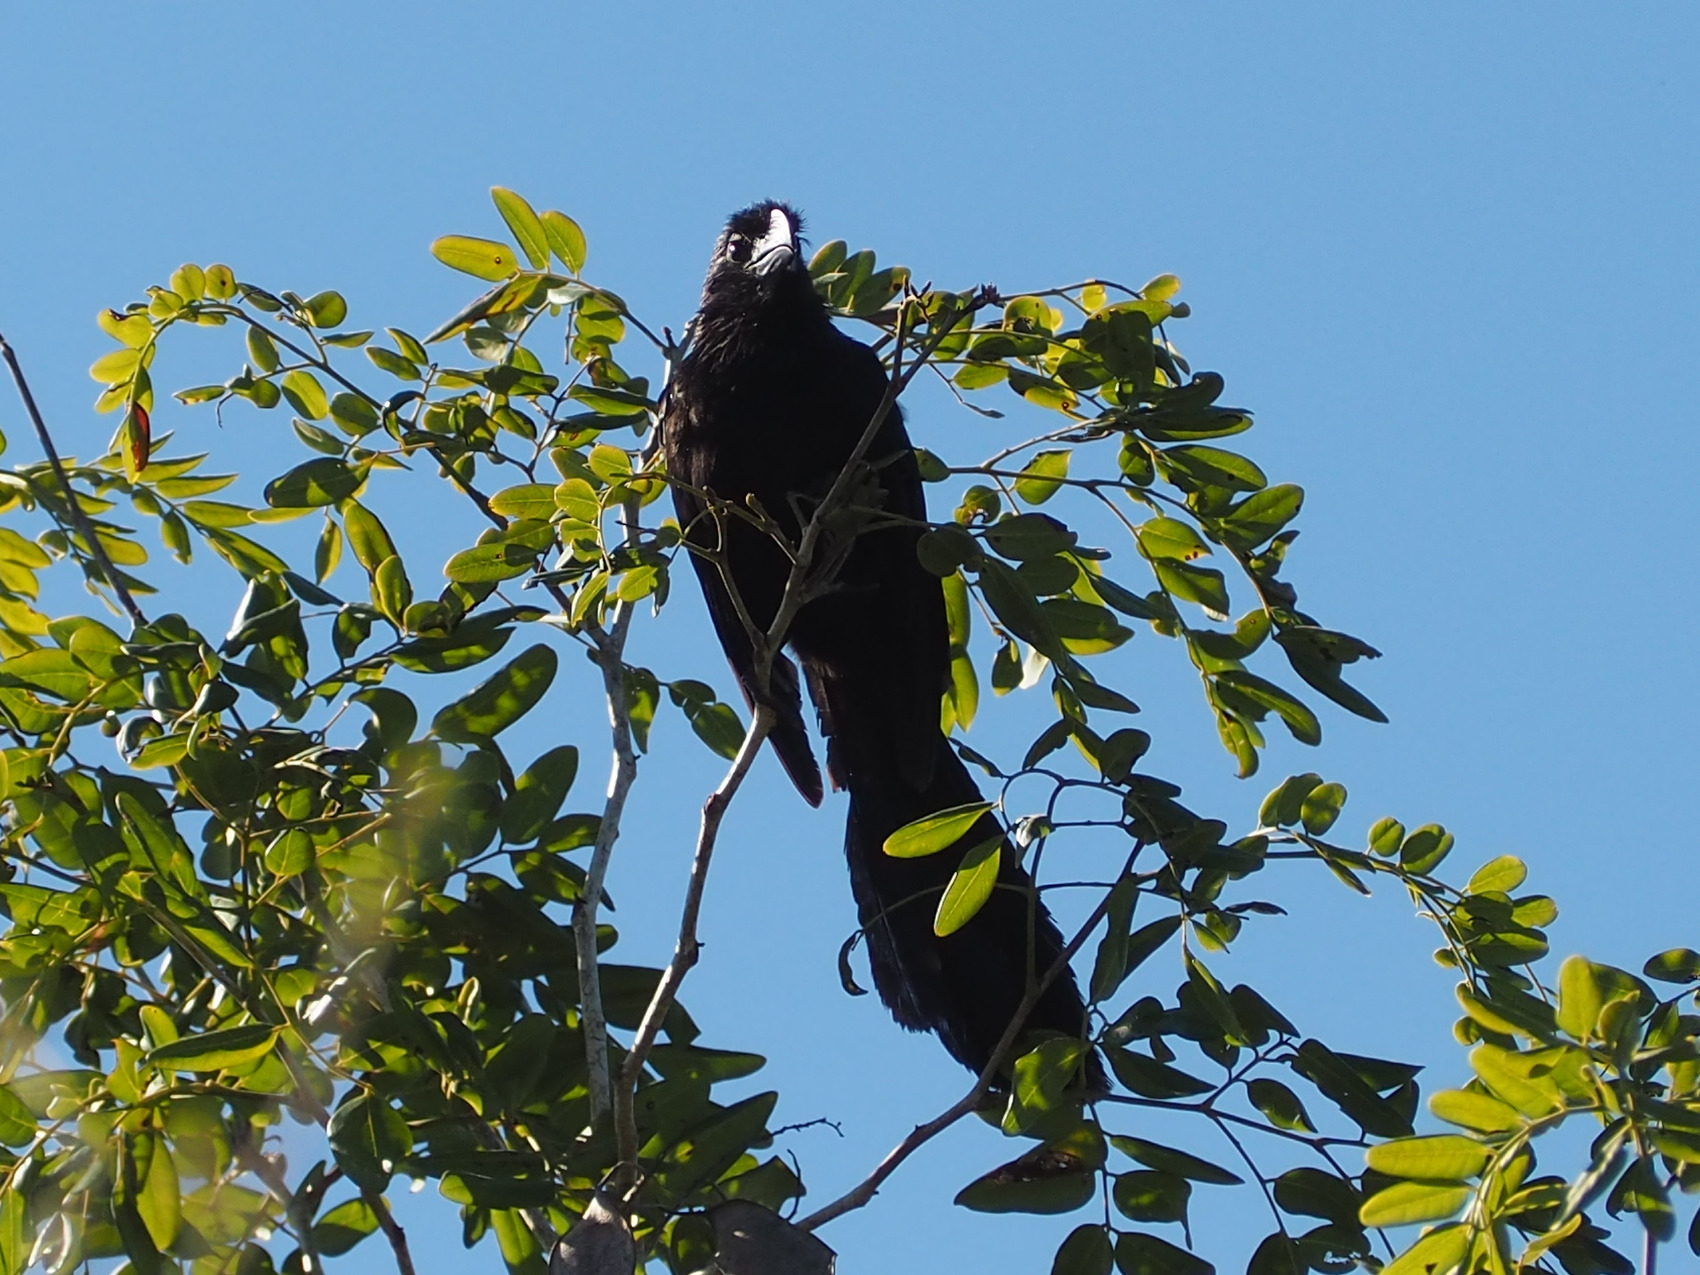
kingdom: Animalia
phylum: Chordata
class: Aves
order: Cuculiformes
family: Cuculidae
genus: Crotophaga
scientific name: Crotophaga sulcirostris
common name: Groove-billed ani
